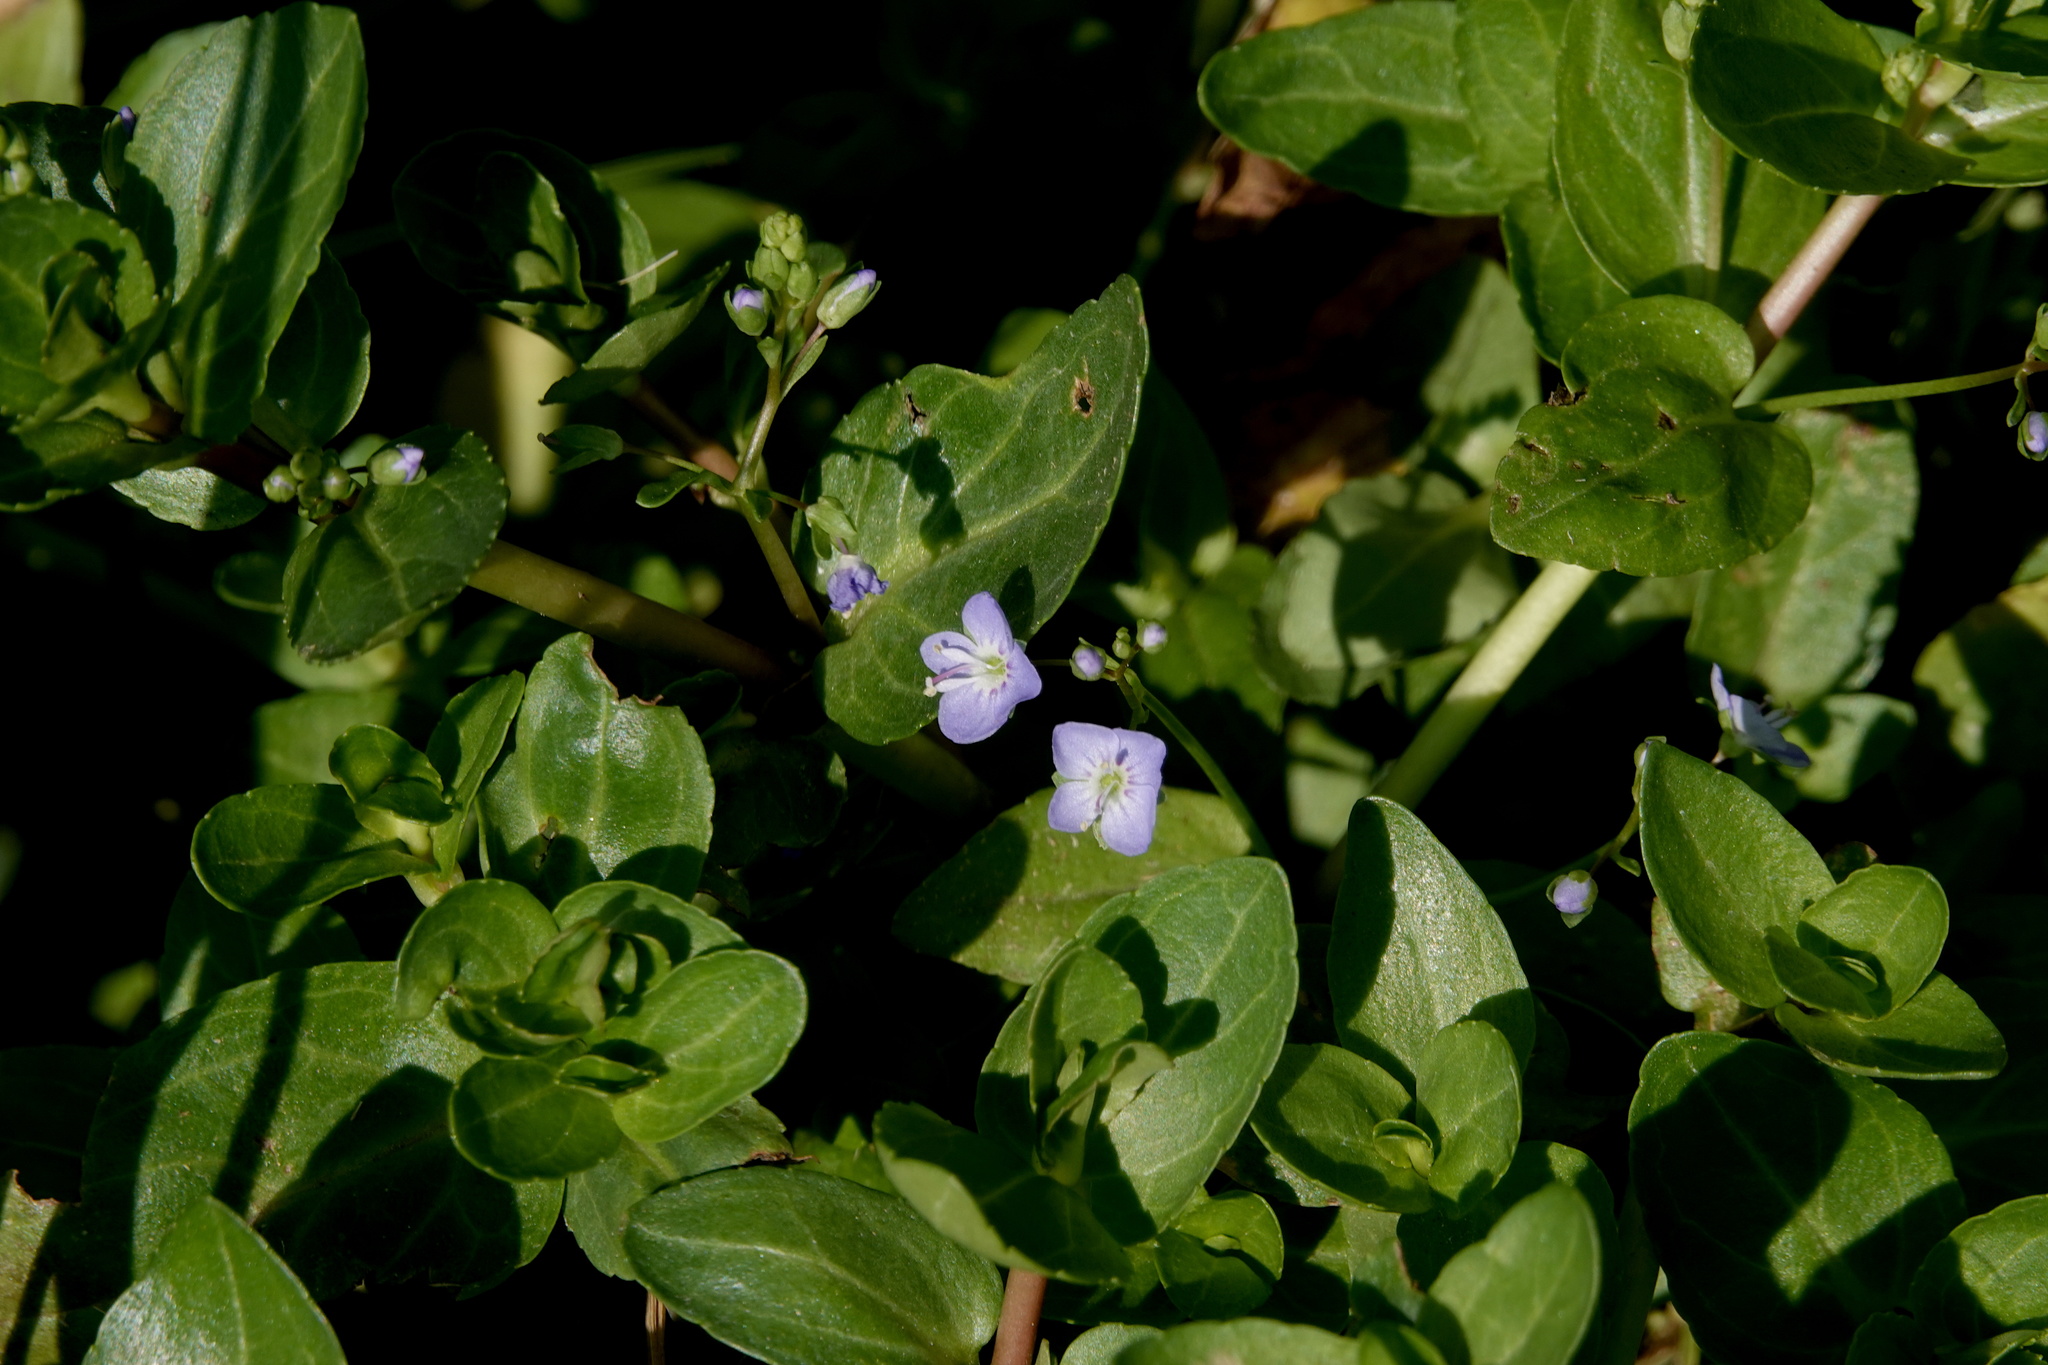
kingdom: Plantae
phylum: Tracheophyta
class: Magnoliopsida
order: Lamiales
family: Plantaginaceae
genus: Veronica
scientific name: Veronica americana
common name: American brooklime
